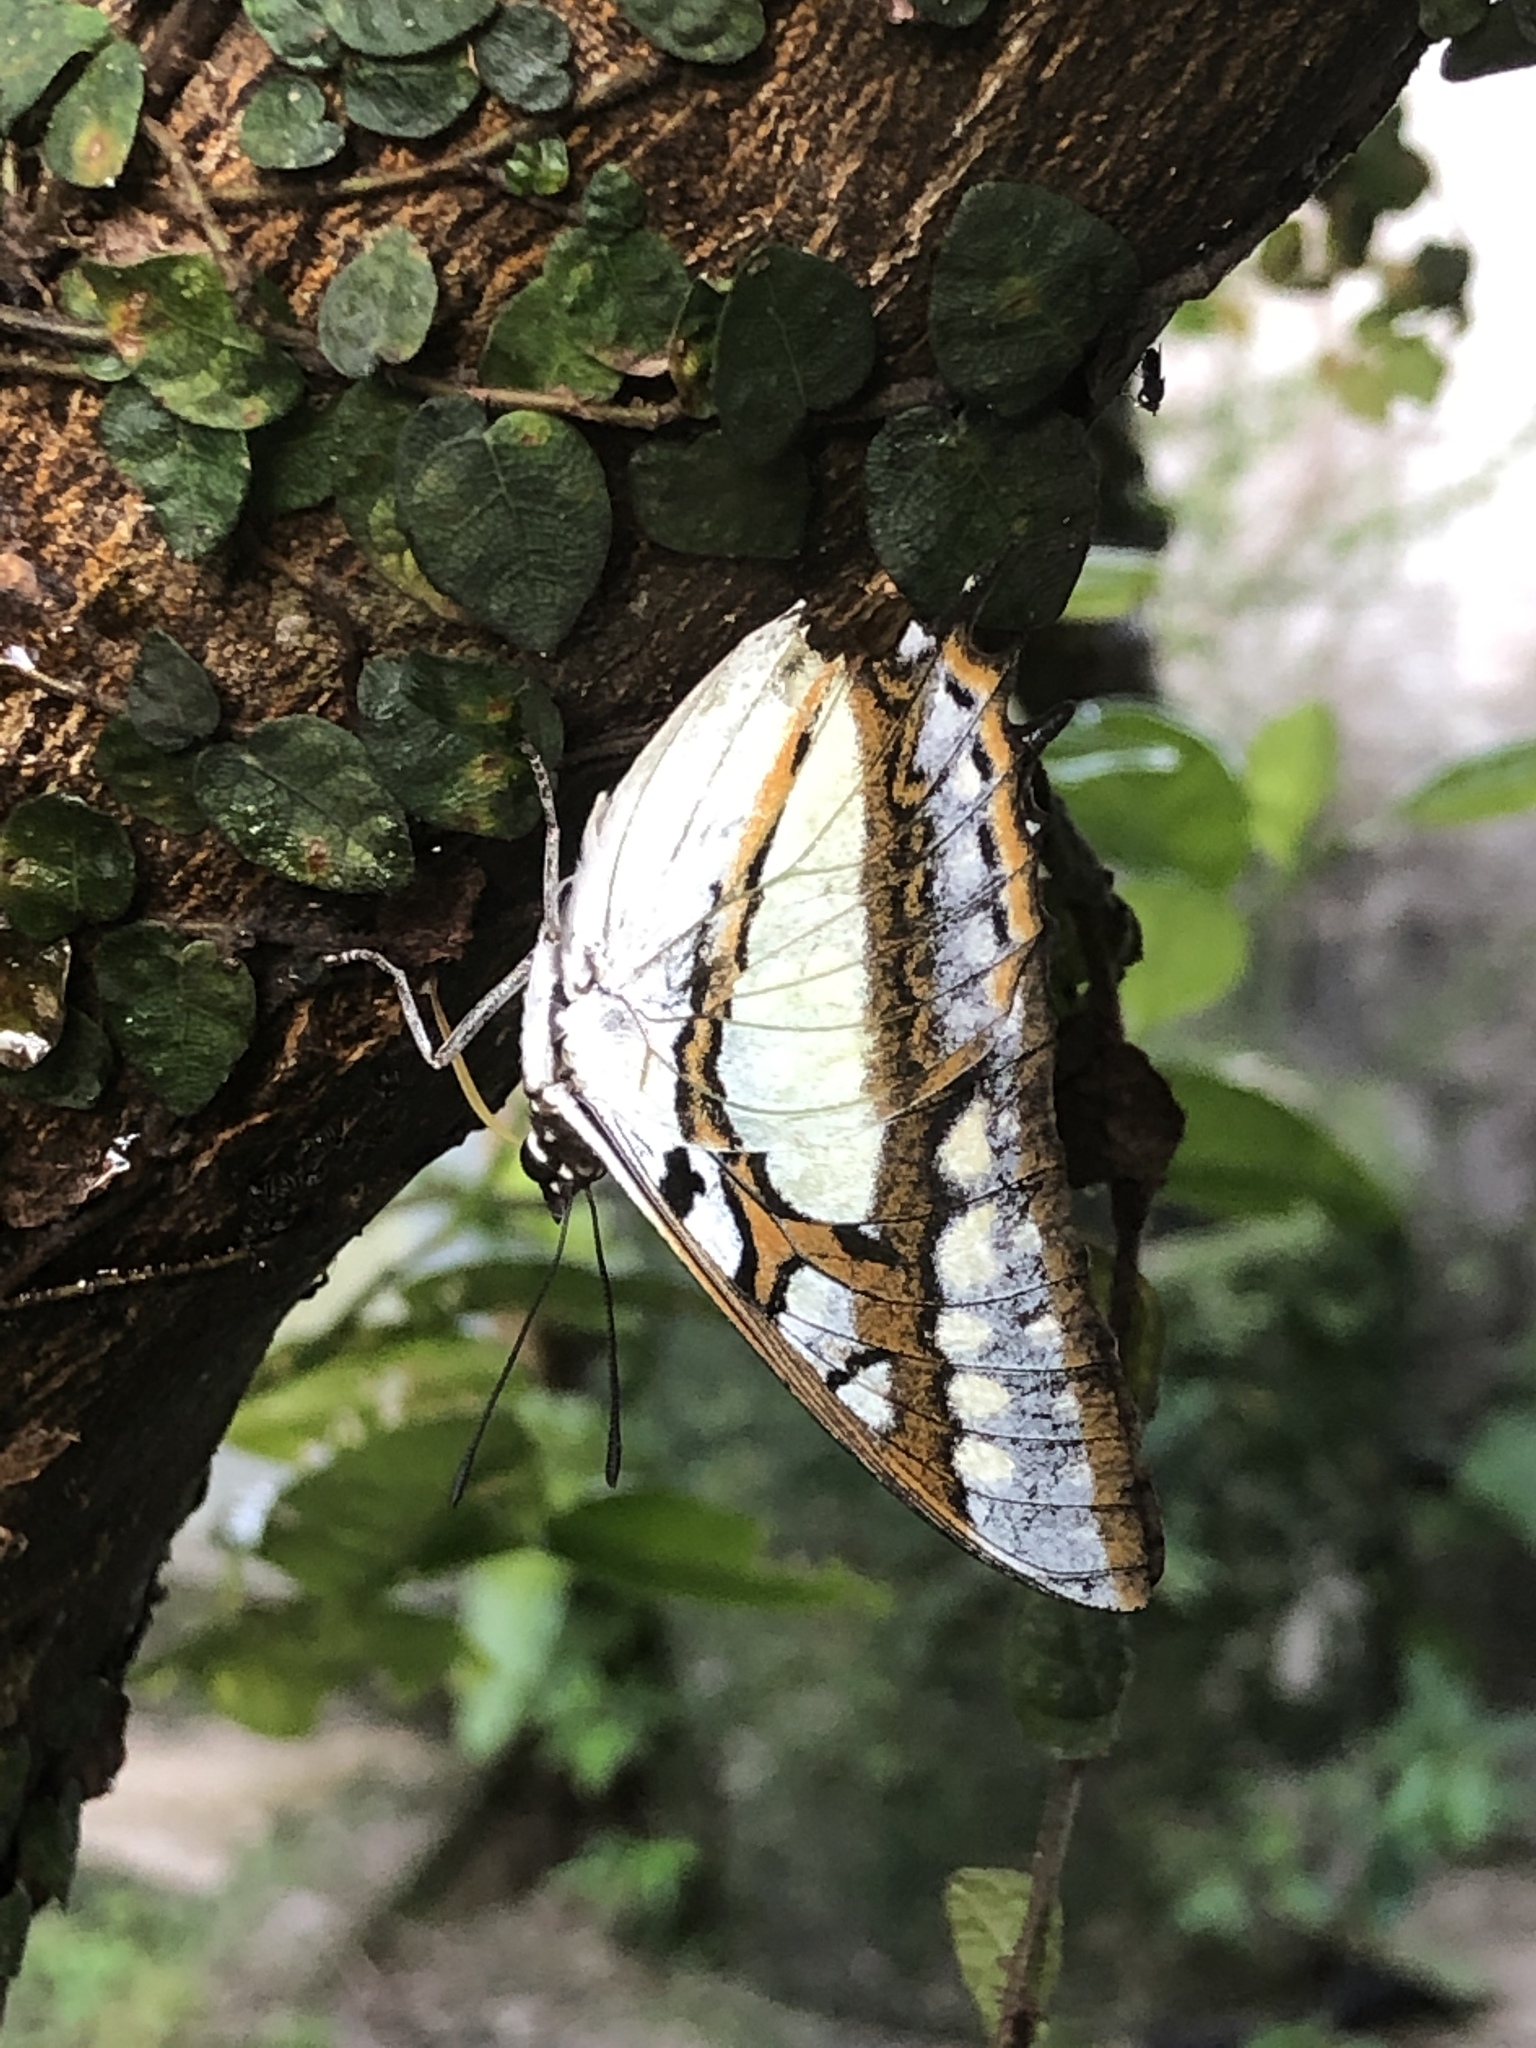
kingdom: Animalia
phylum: Arthropoda
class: Insecta
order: Lepidoptera
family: Nymphalidae
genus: Polyura
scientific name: Polyura
